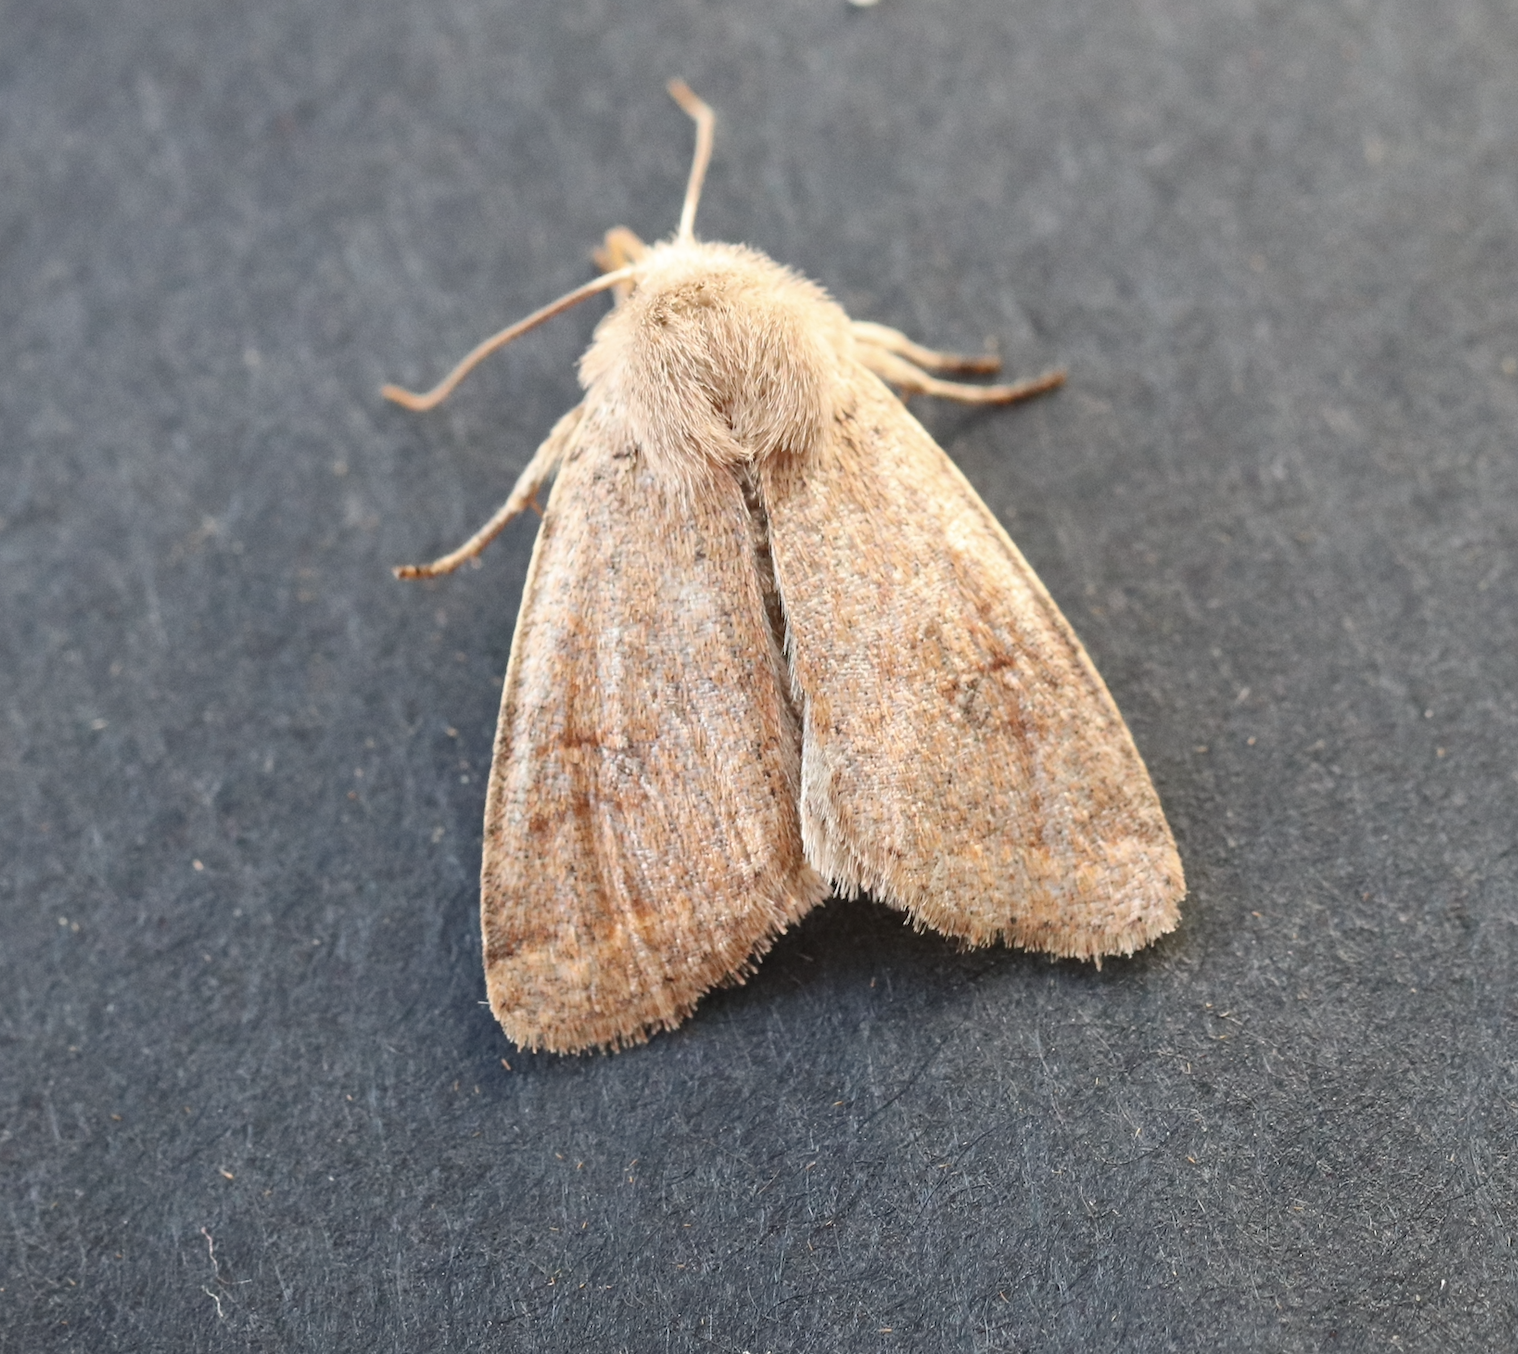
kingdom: Animalia
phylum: Arthropoda
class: Insecta
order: Lepidoptera
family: Noctuidae
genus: Orthosia
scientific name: Orthosia cruda
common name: Small quaker
